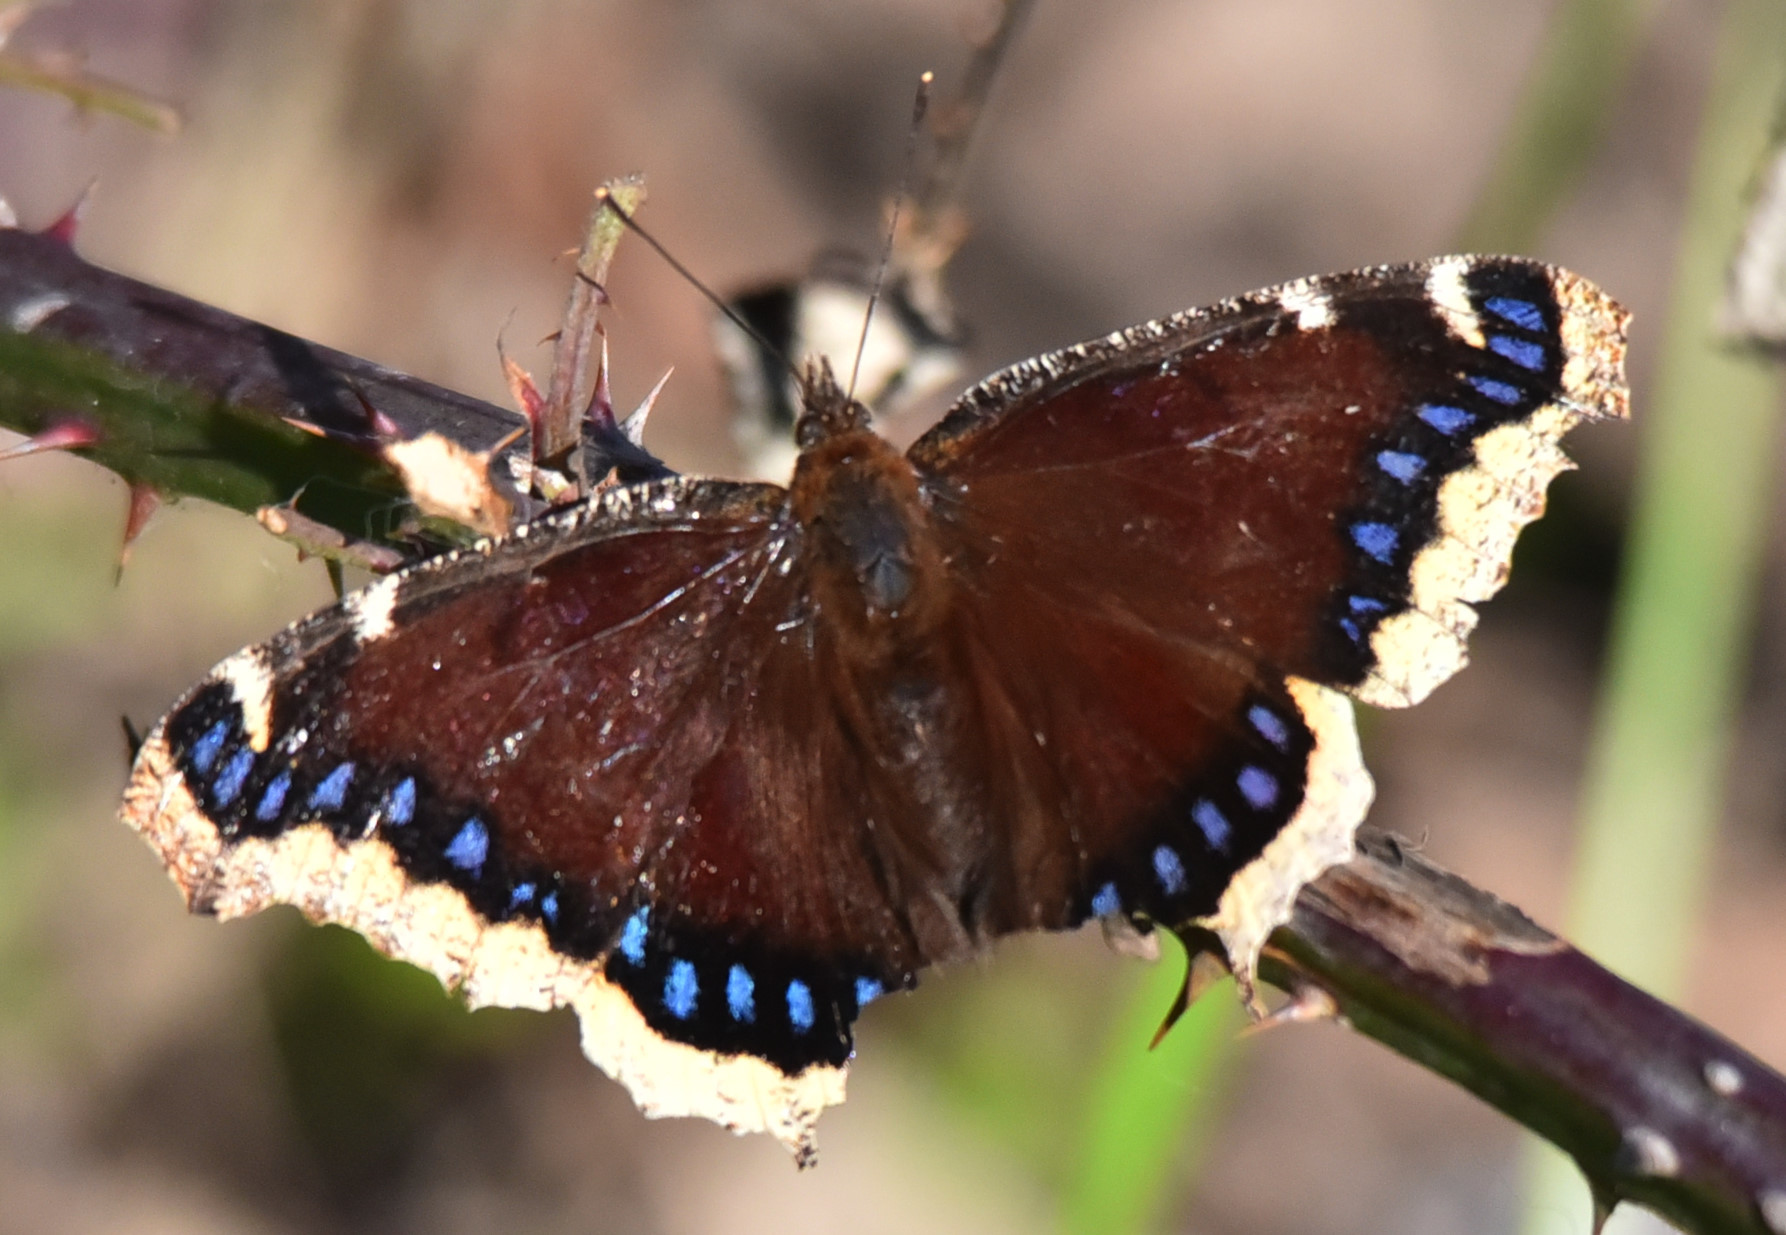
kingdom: Animalia
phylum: Arthropoda
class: Insecta
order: Lepidoptera
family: Nymphalidae
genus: Nymphalis
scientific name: Nymphalis antiopa
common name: Camberwell beauty
